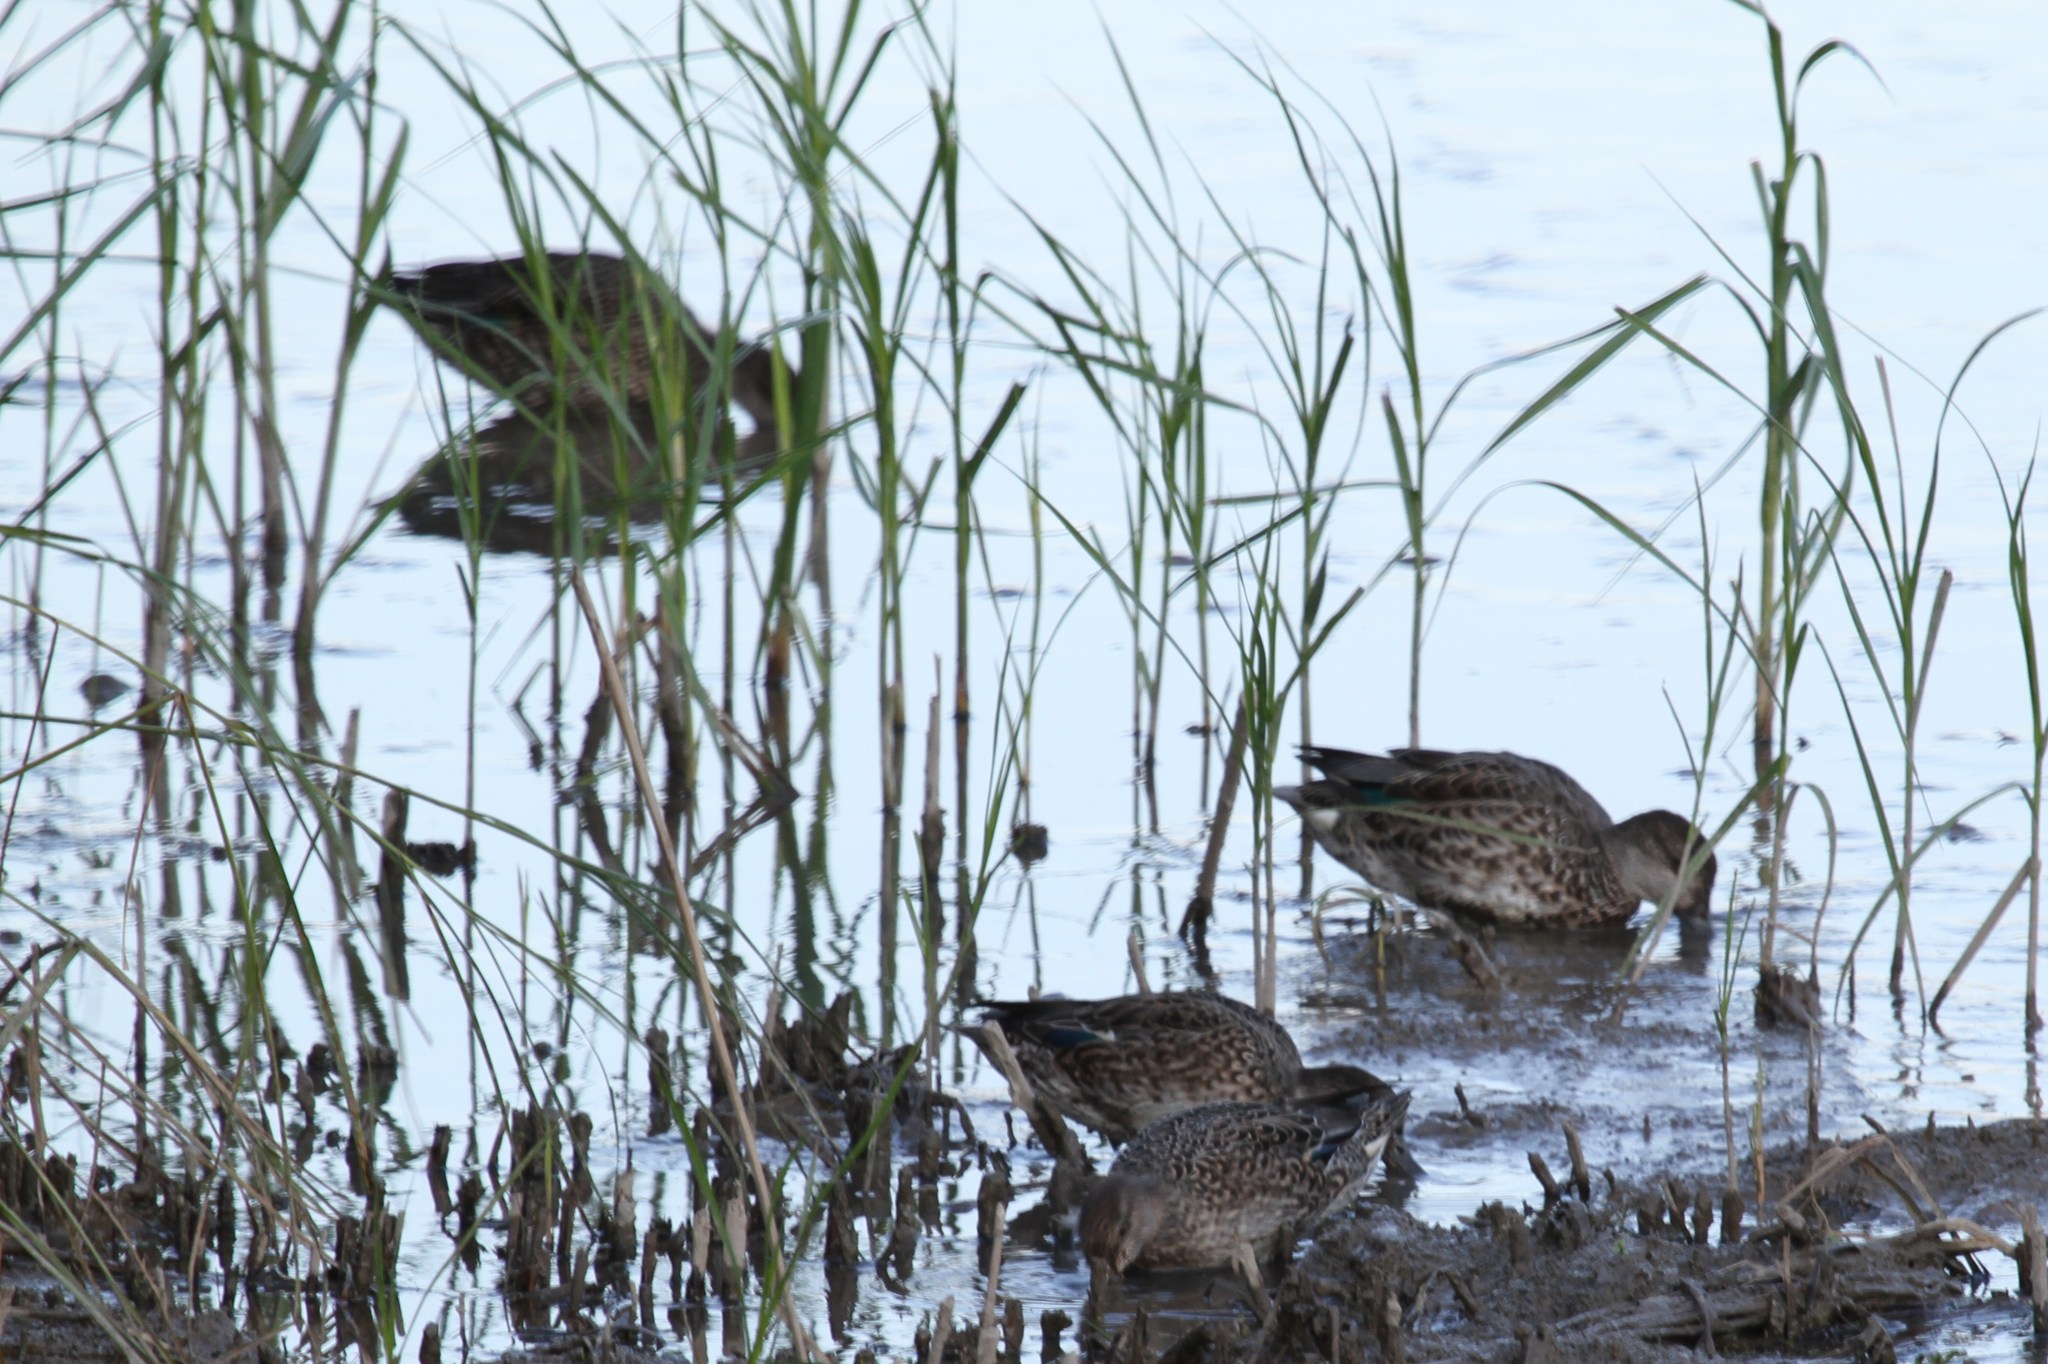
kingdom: Animalia
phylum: Chordata
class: Aves
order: Anseriformes
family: Anatidae
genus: Anas
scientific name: Anas crecca
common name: Eurasian teal
